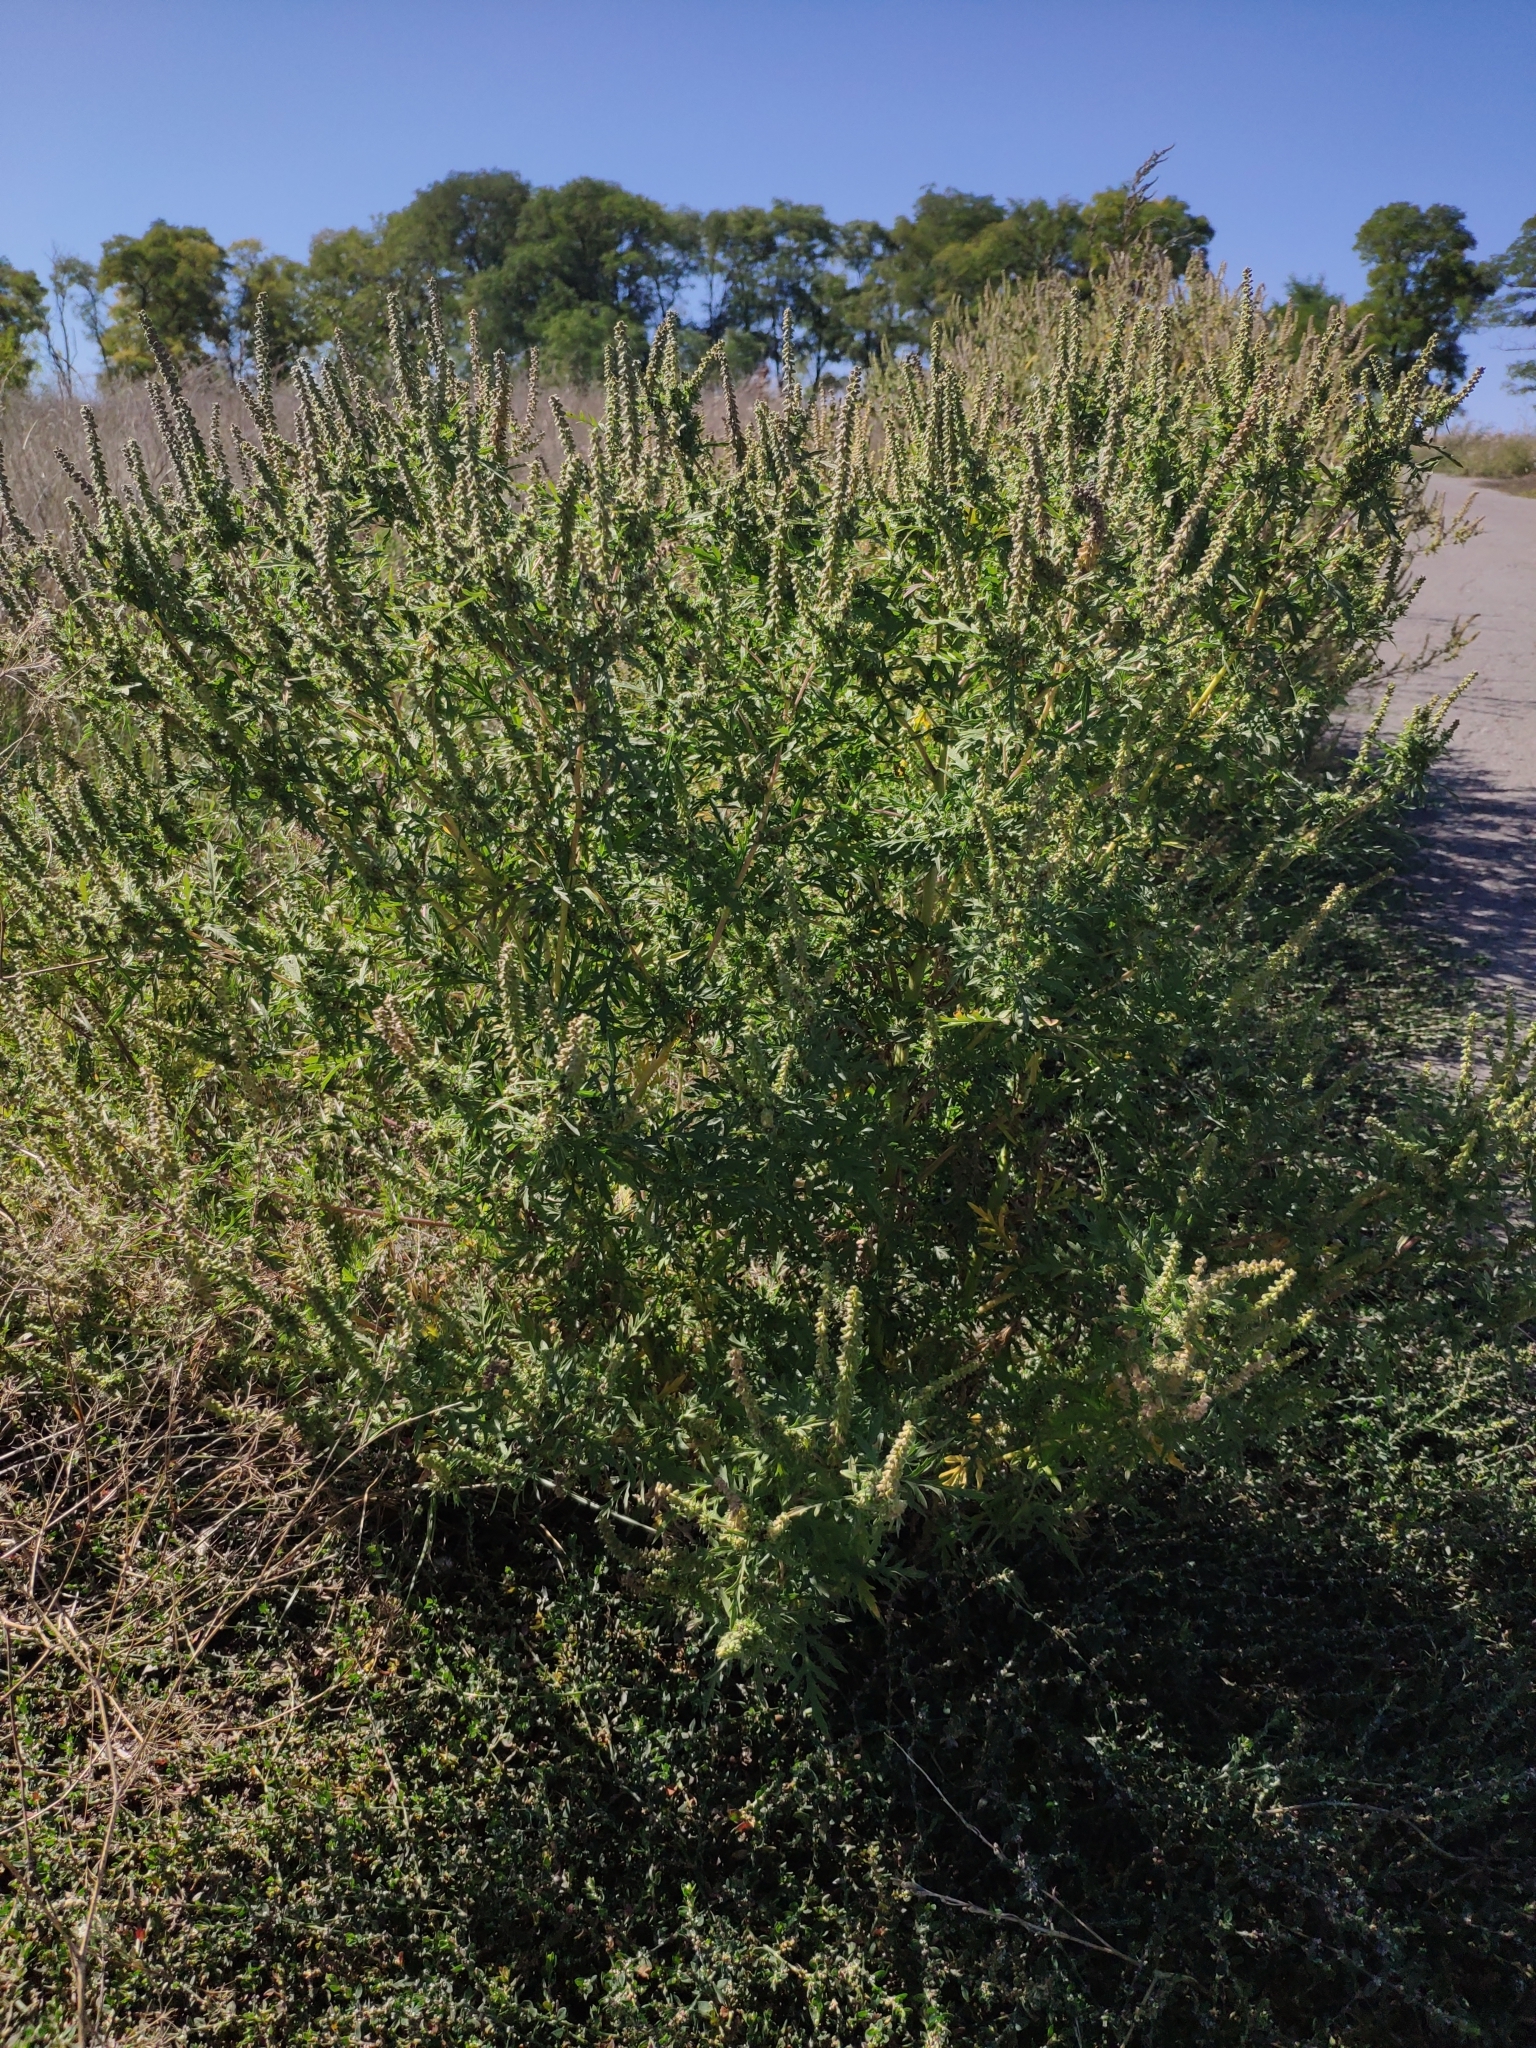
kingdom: Plantae
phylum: Tracheophyta
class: Magnoliopsida
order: Asterales
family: Asteraceae
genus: Ambrosia
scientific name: Ambrosia artemisiifolia
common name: Annual ragweed
